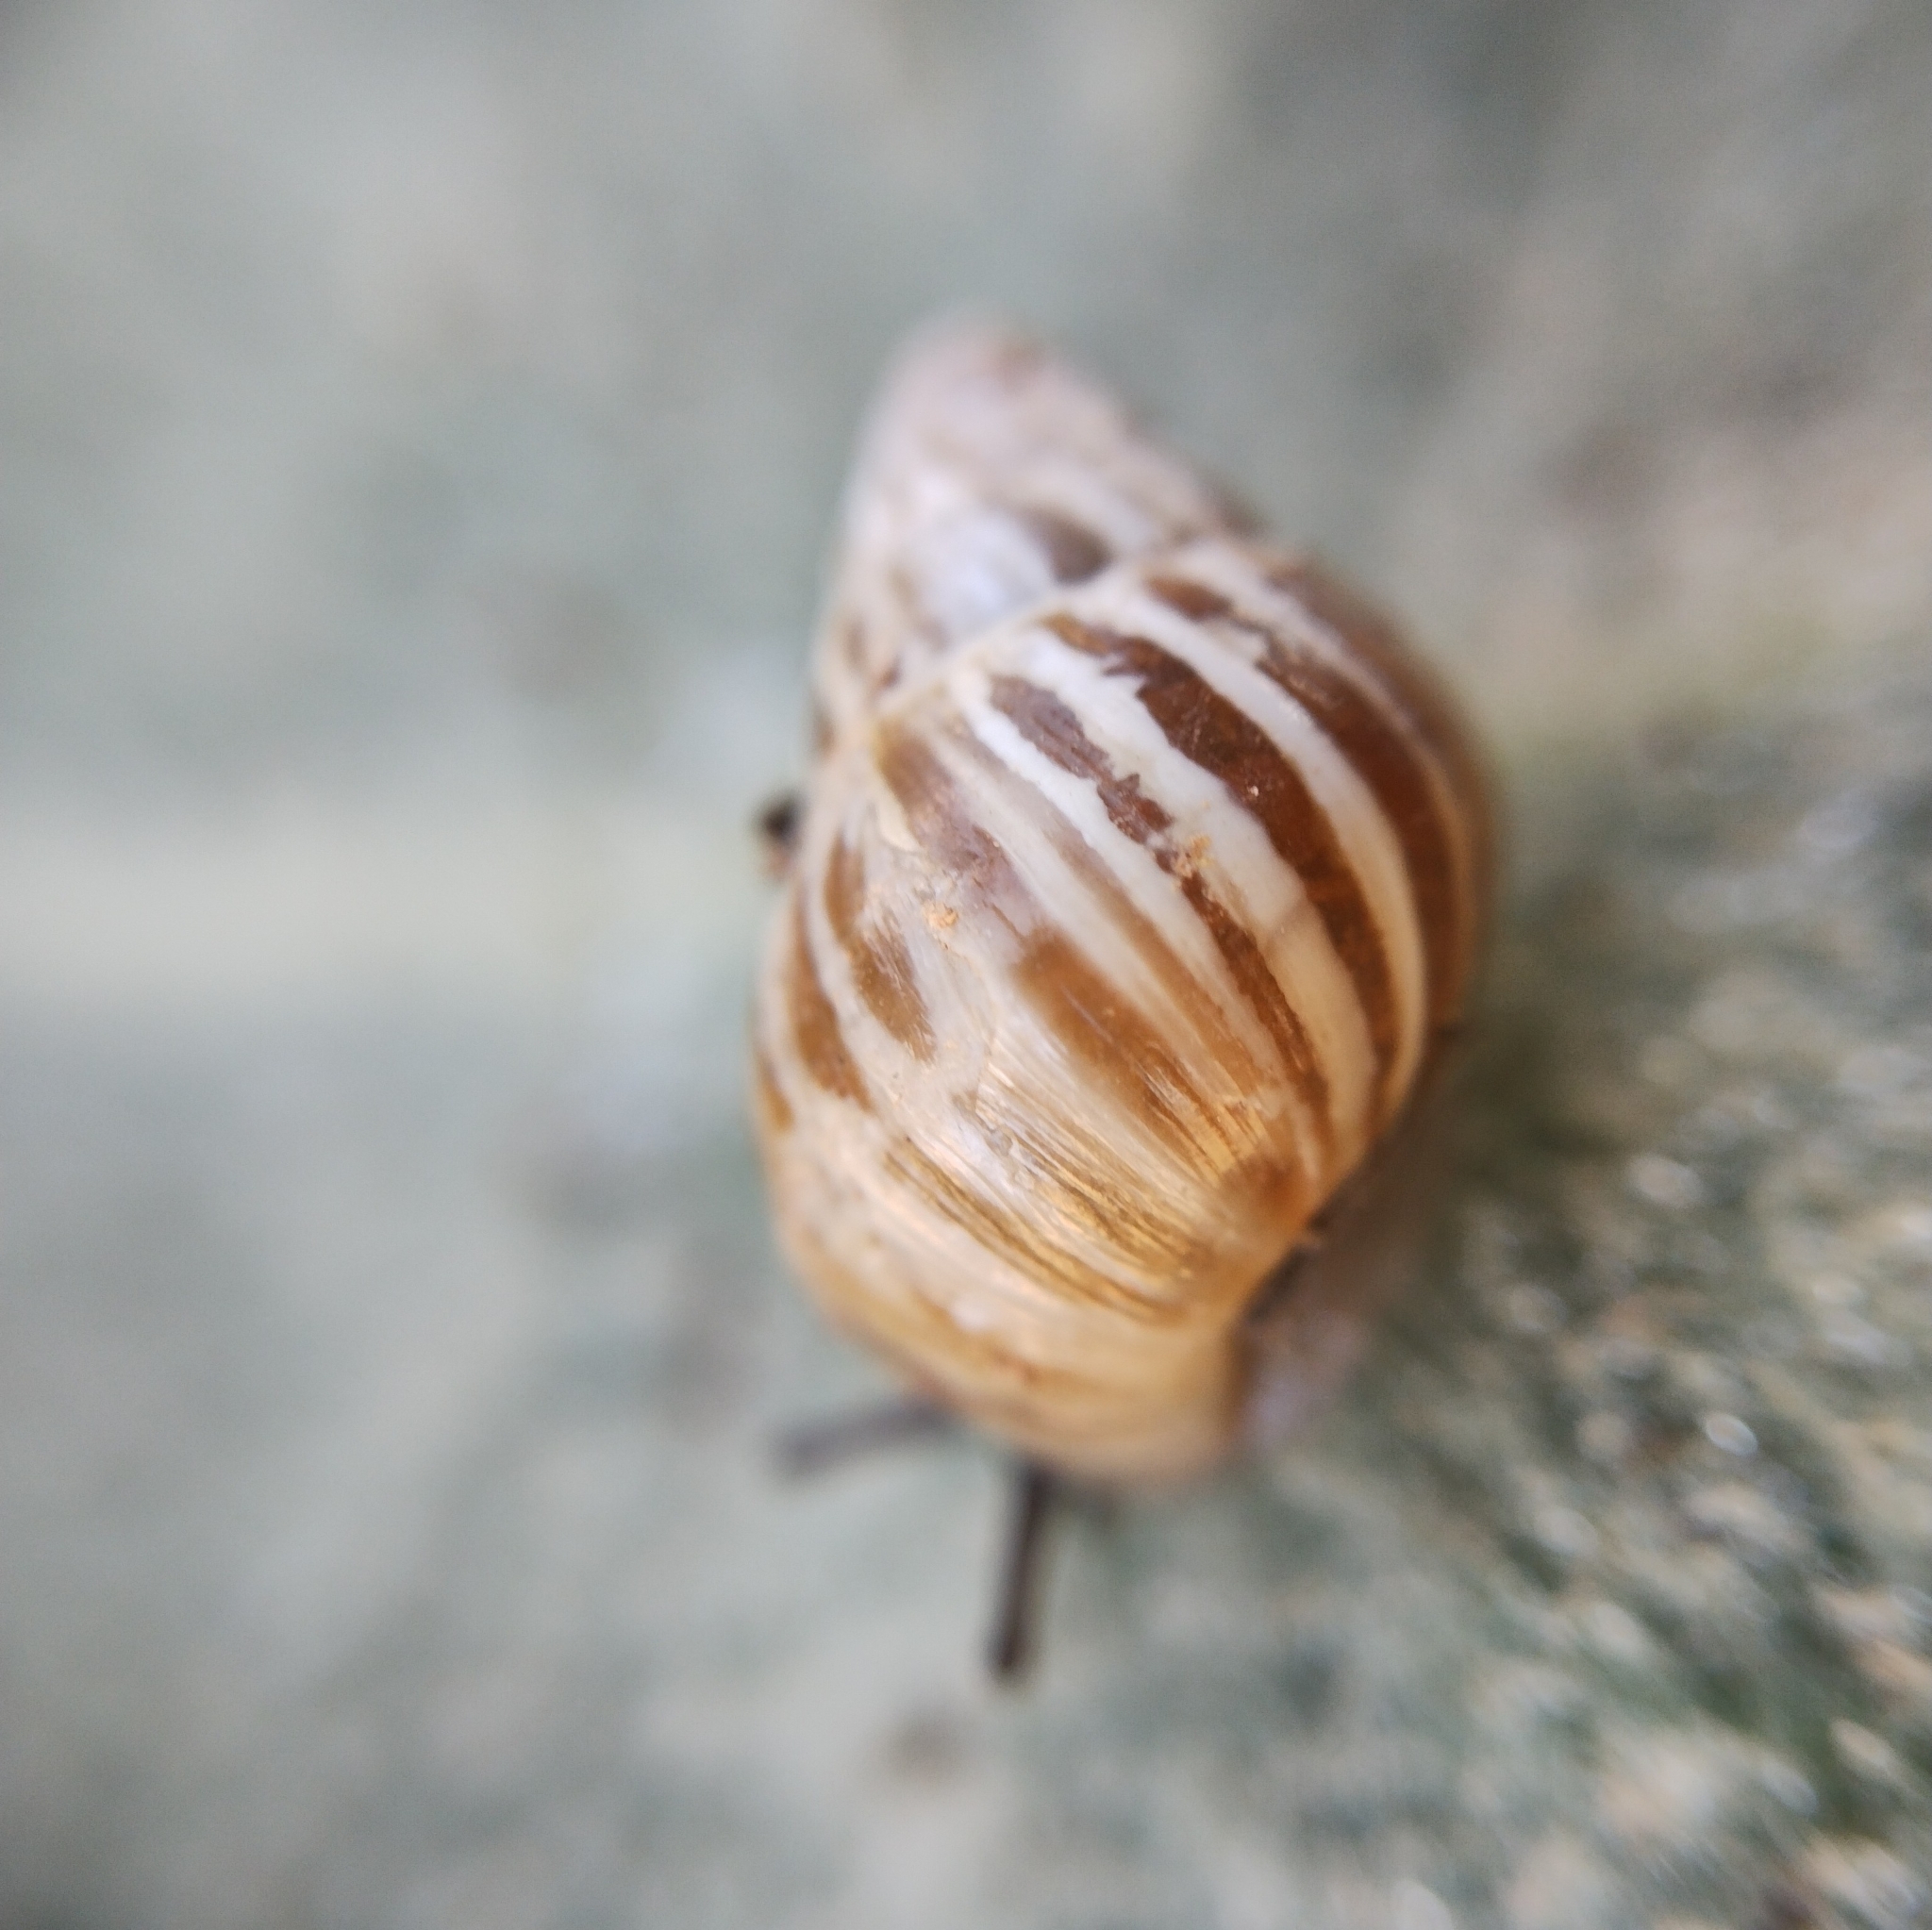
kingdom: Animalia
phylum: Mollusca
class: Gastropoda
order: Stylommatophora
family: Enidae
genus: Zebrina
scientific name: Zebrina detrita
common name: Large bulin
